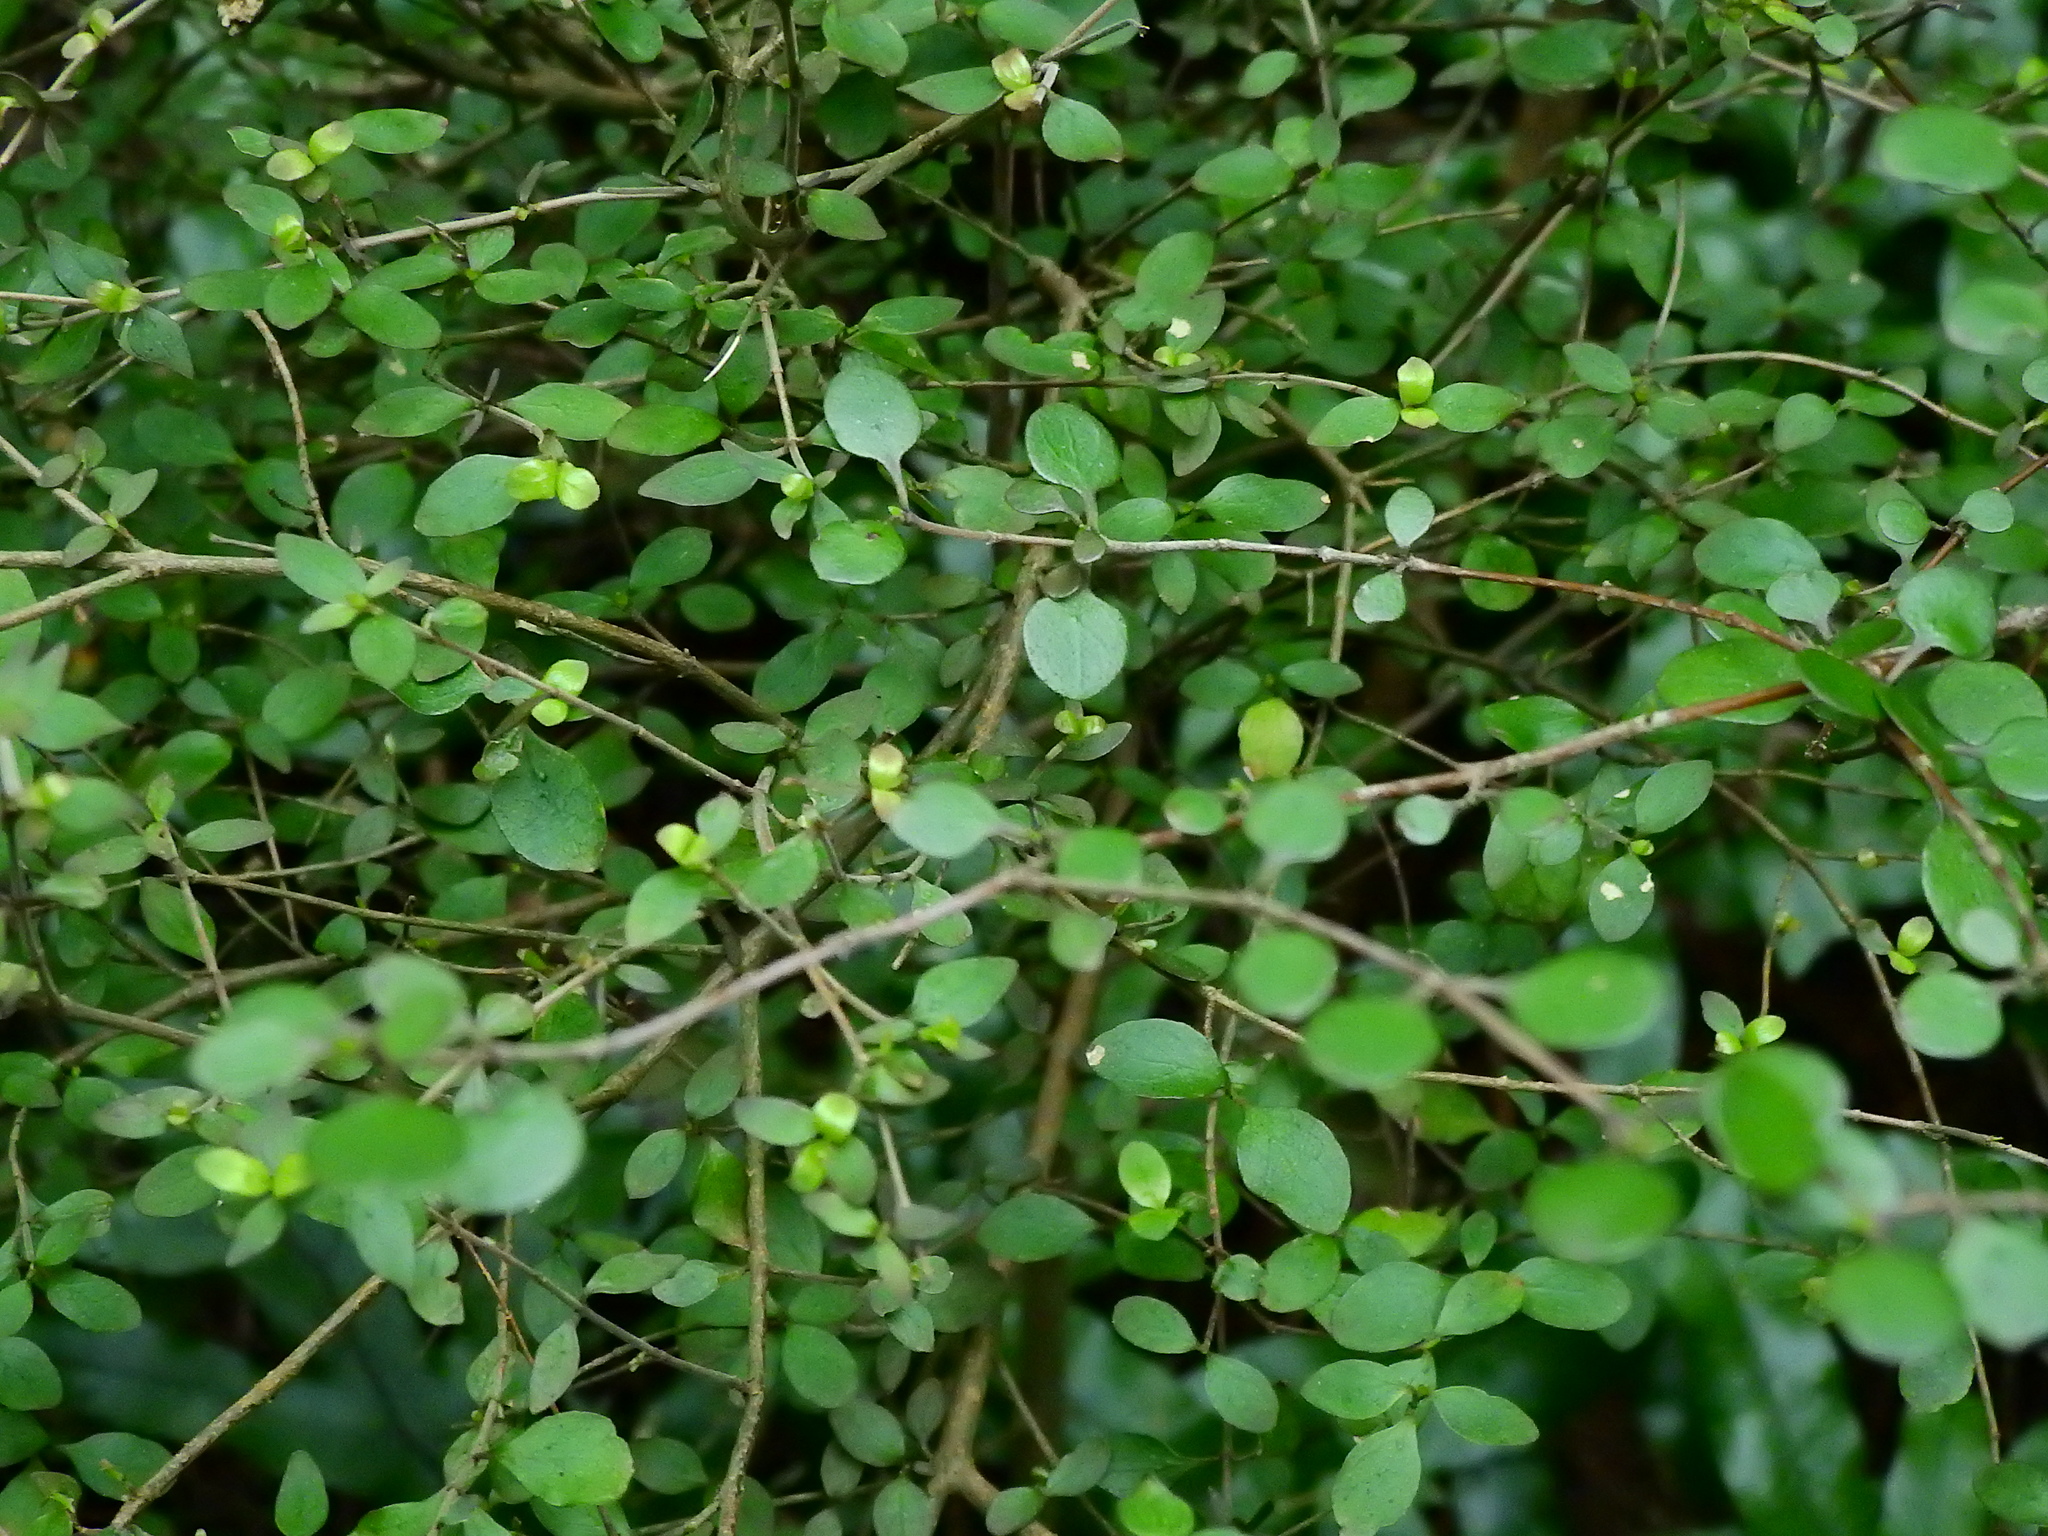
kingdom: Plantae
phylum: Tracheophyta
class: Magnoliopsida
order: Gentianales
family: Rubiaceae
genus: Coprosma
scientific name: Coprosma rhamnoides
